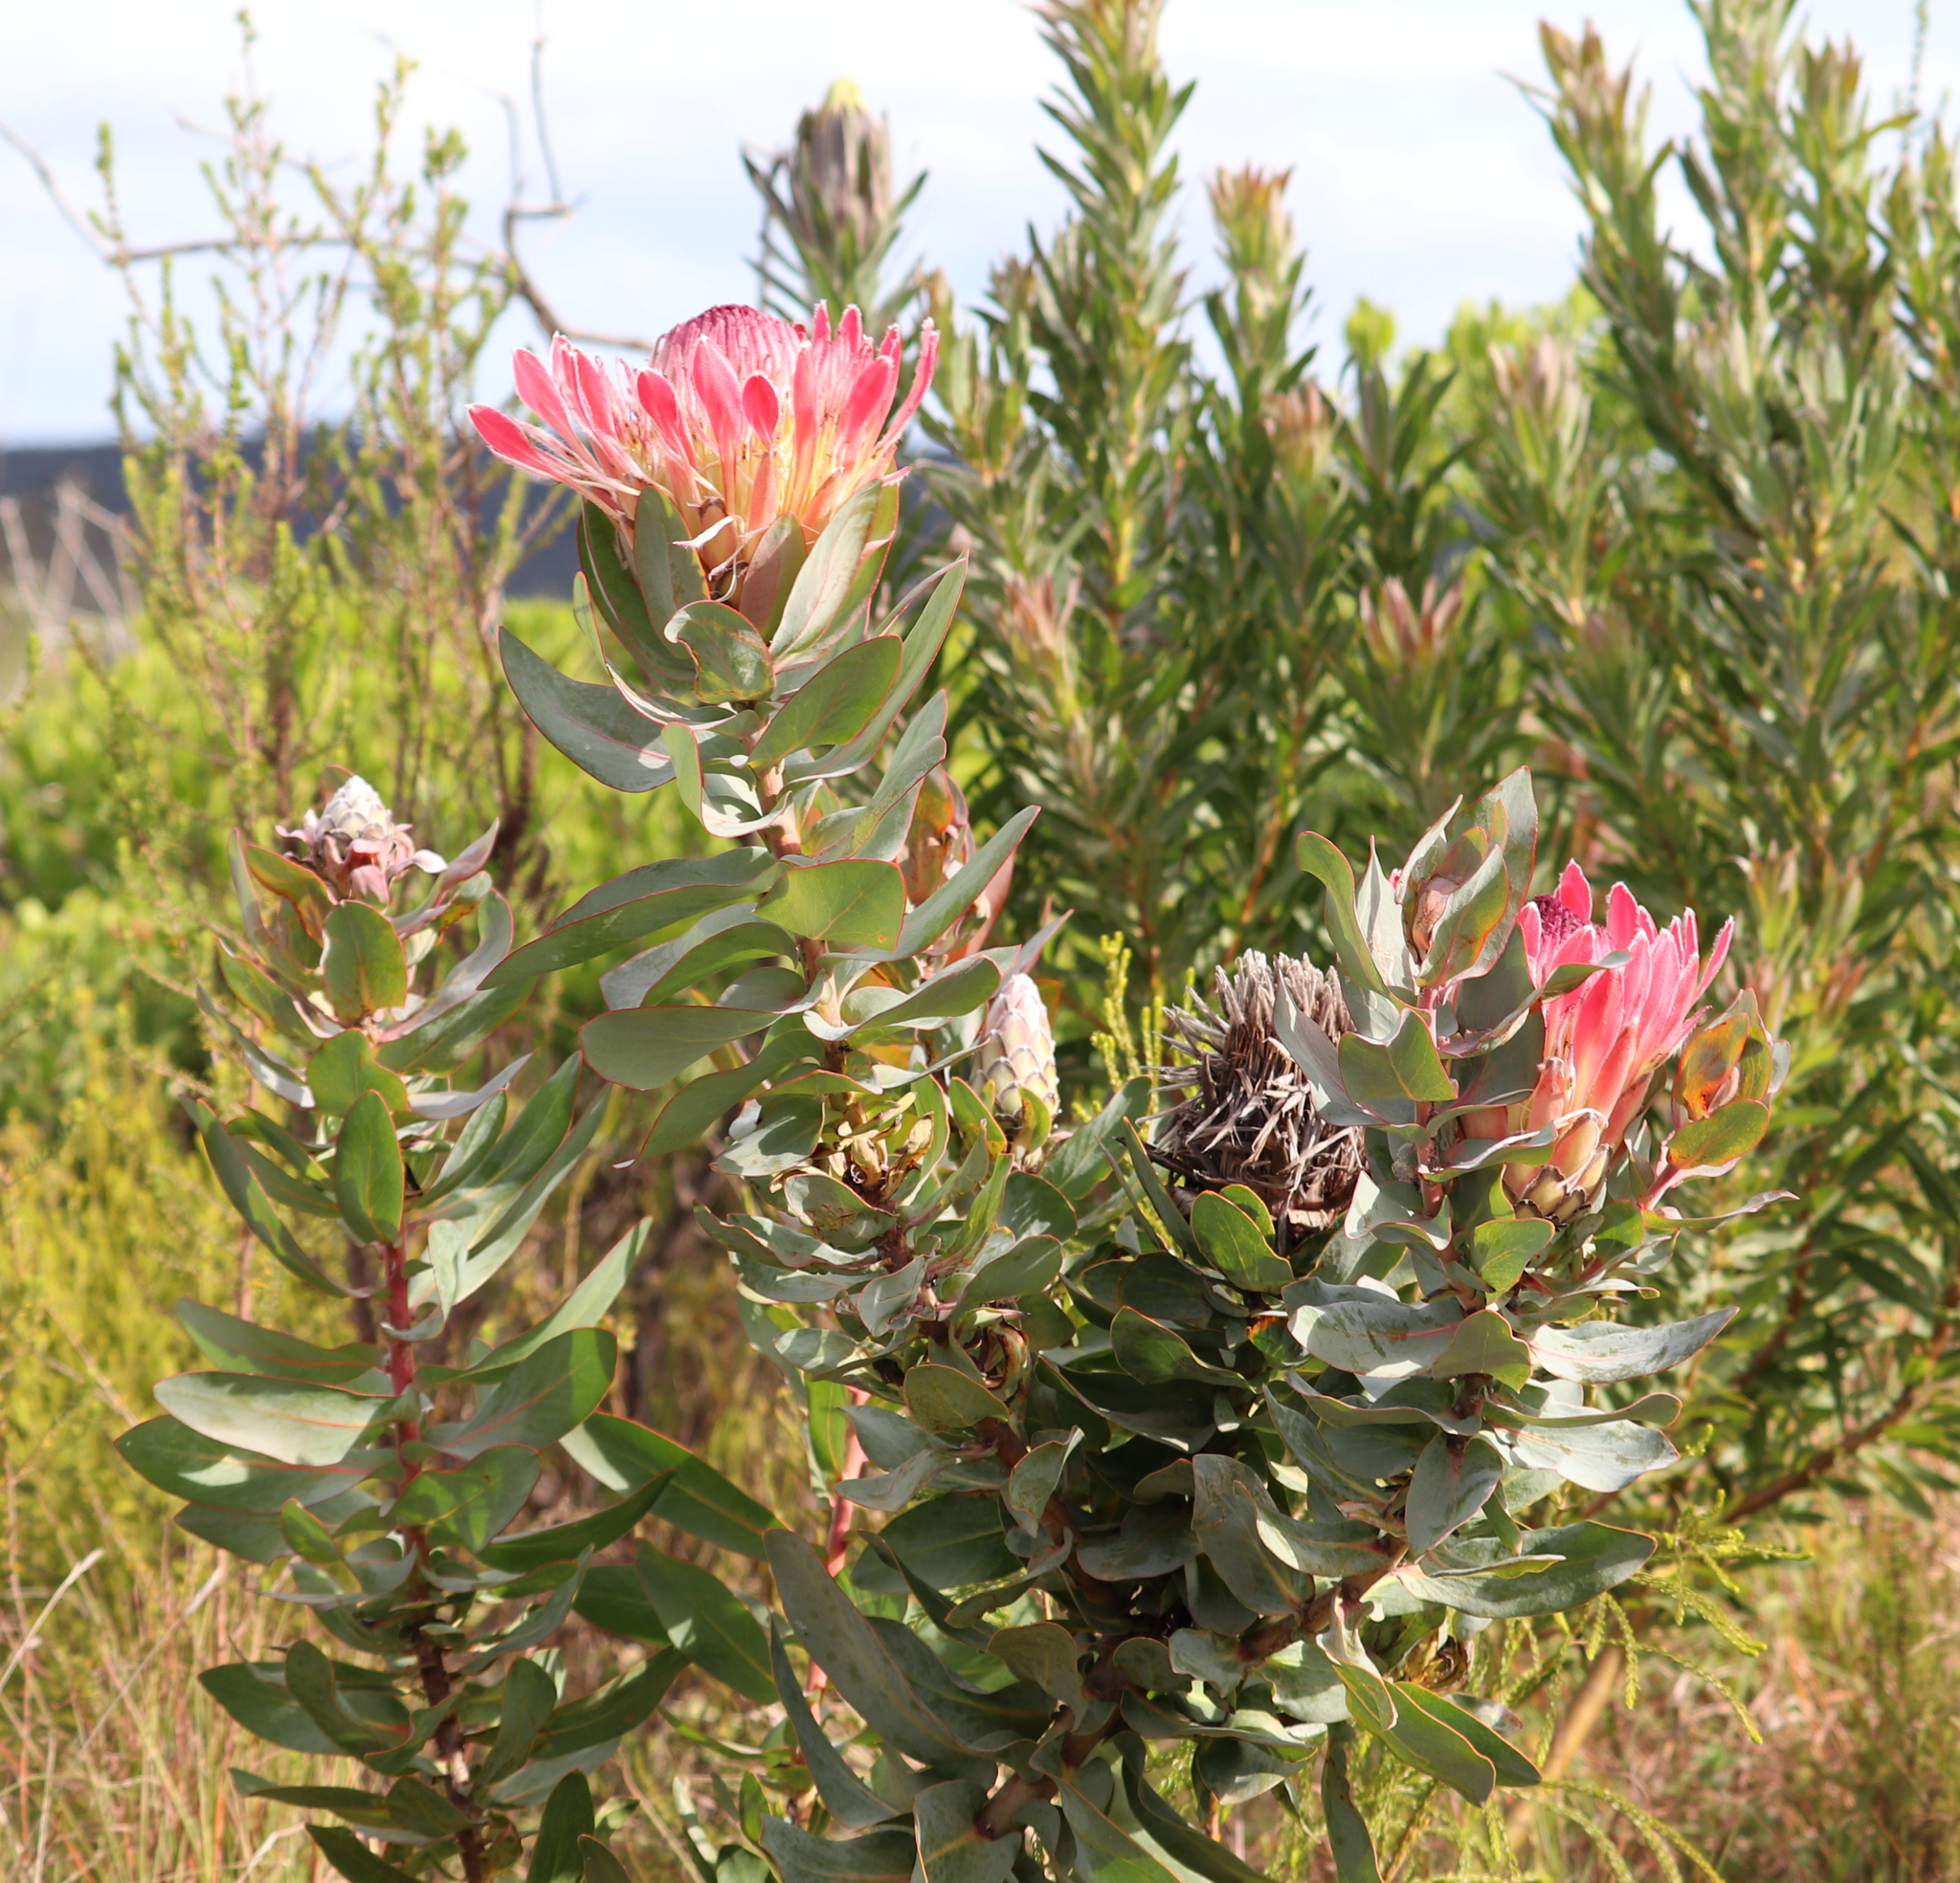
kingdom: Plantae
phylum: Tracheophyta
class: Magnoliopsida
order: Proteales
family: Proteaceae
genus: Protea
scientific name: Protea eximia
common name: Broad-leaved sugarbush
